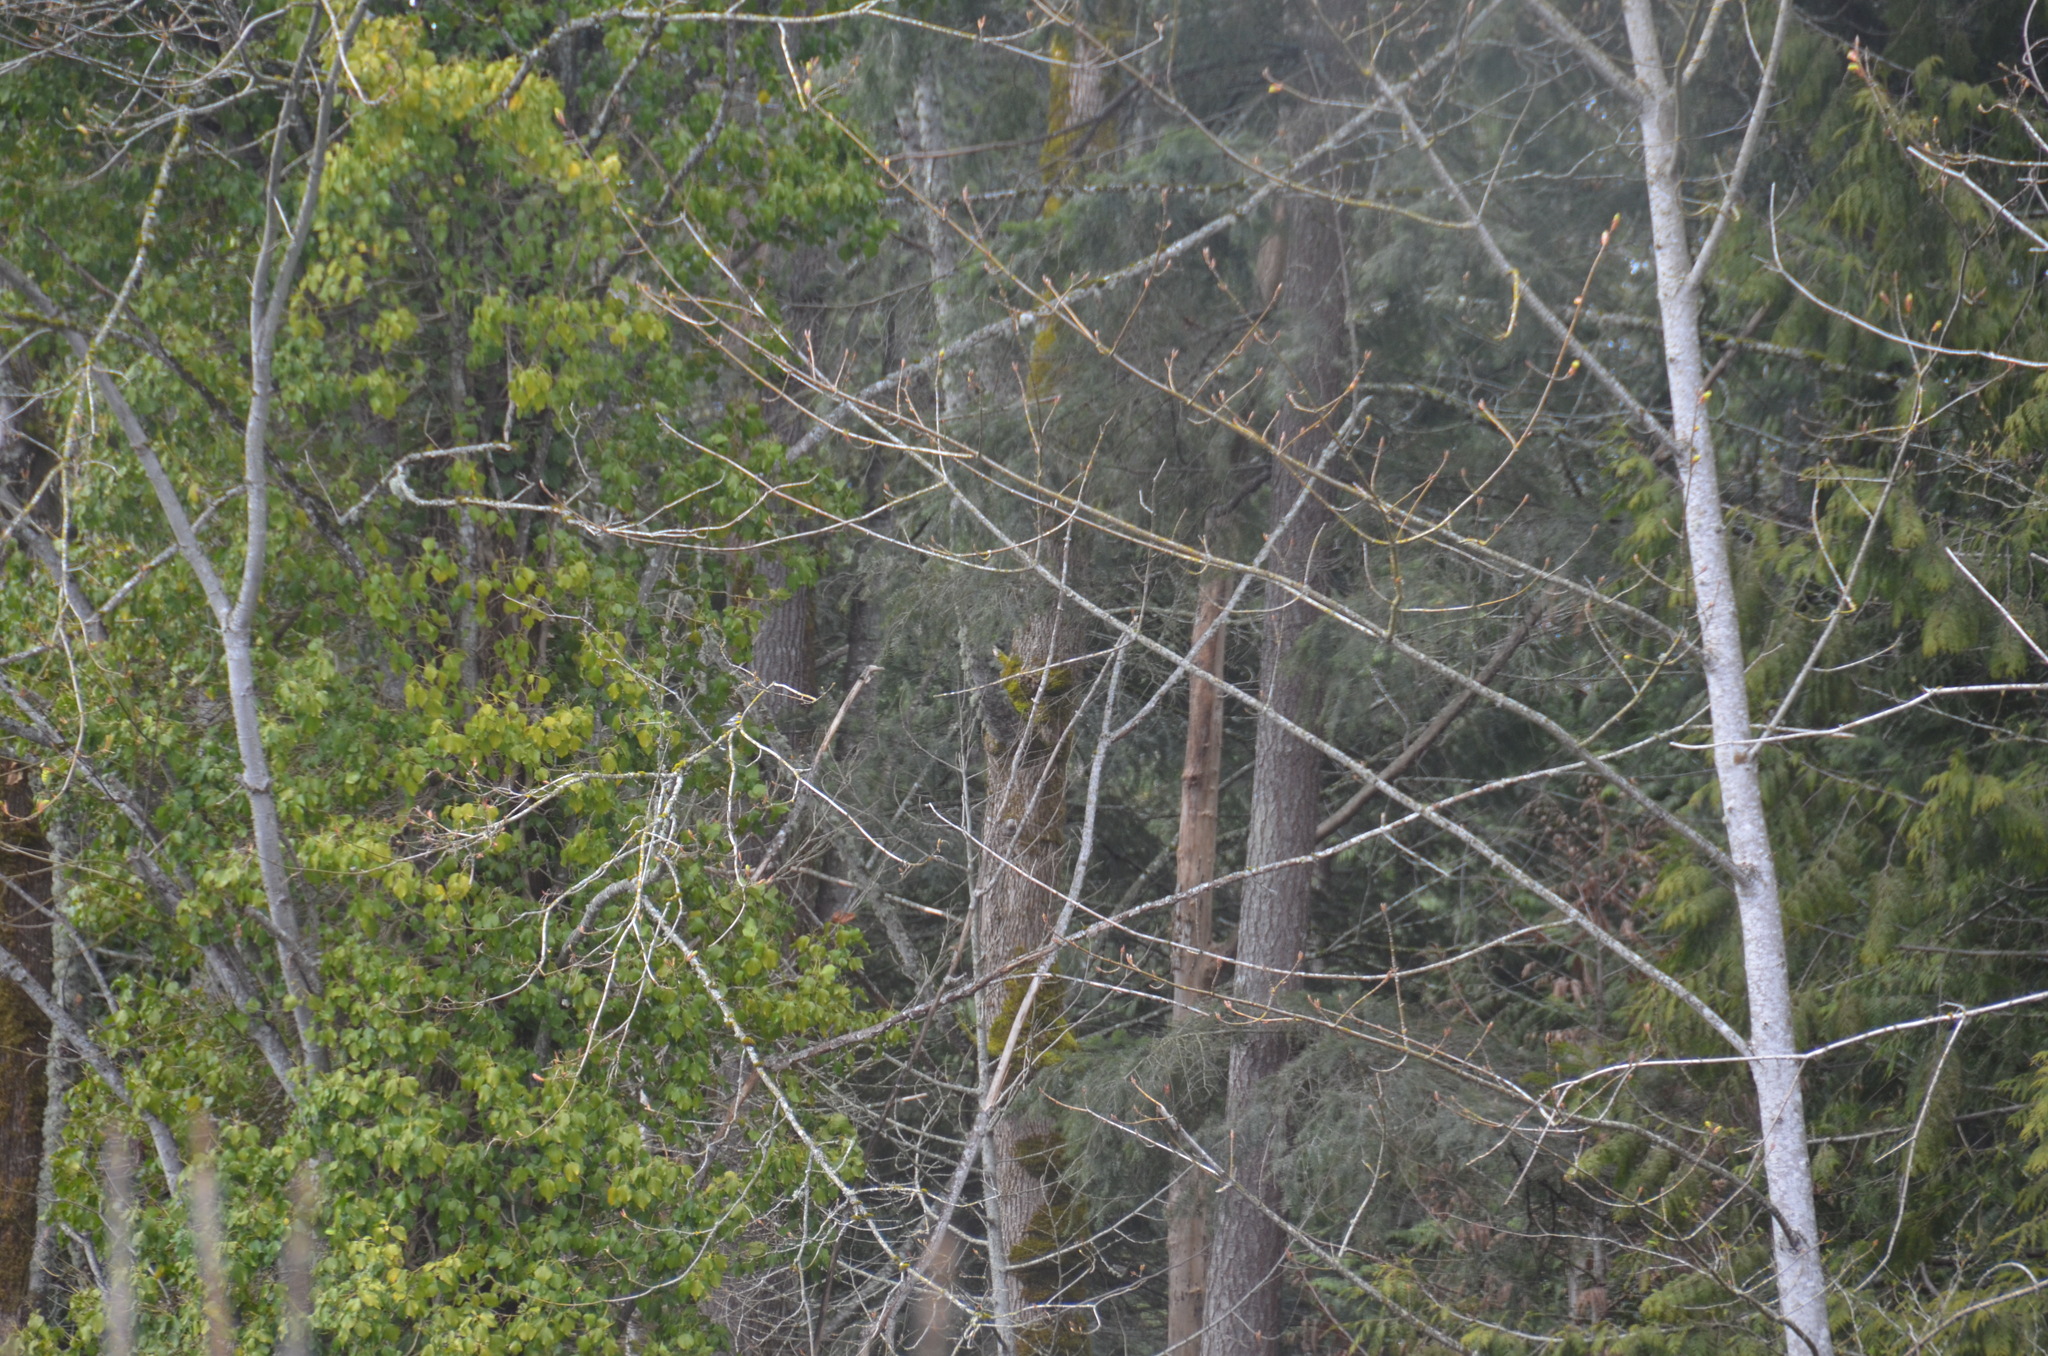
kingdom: Animalia
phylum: Chordata
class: Aves
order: Passeriformes
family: Parulidae
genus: Setophaga
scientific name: Setophaga coronata
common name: Myrtle warbler
